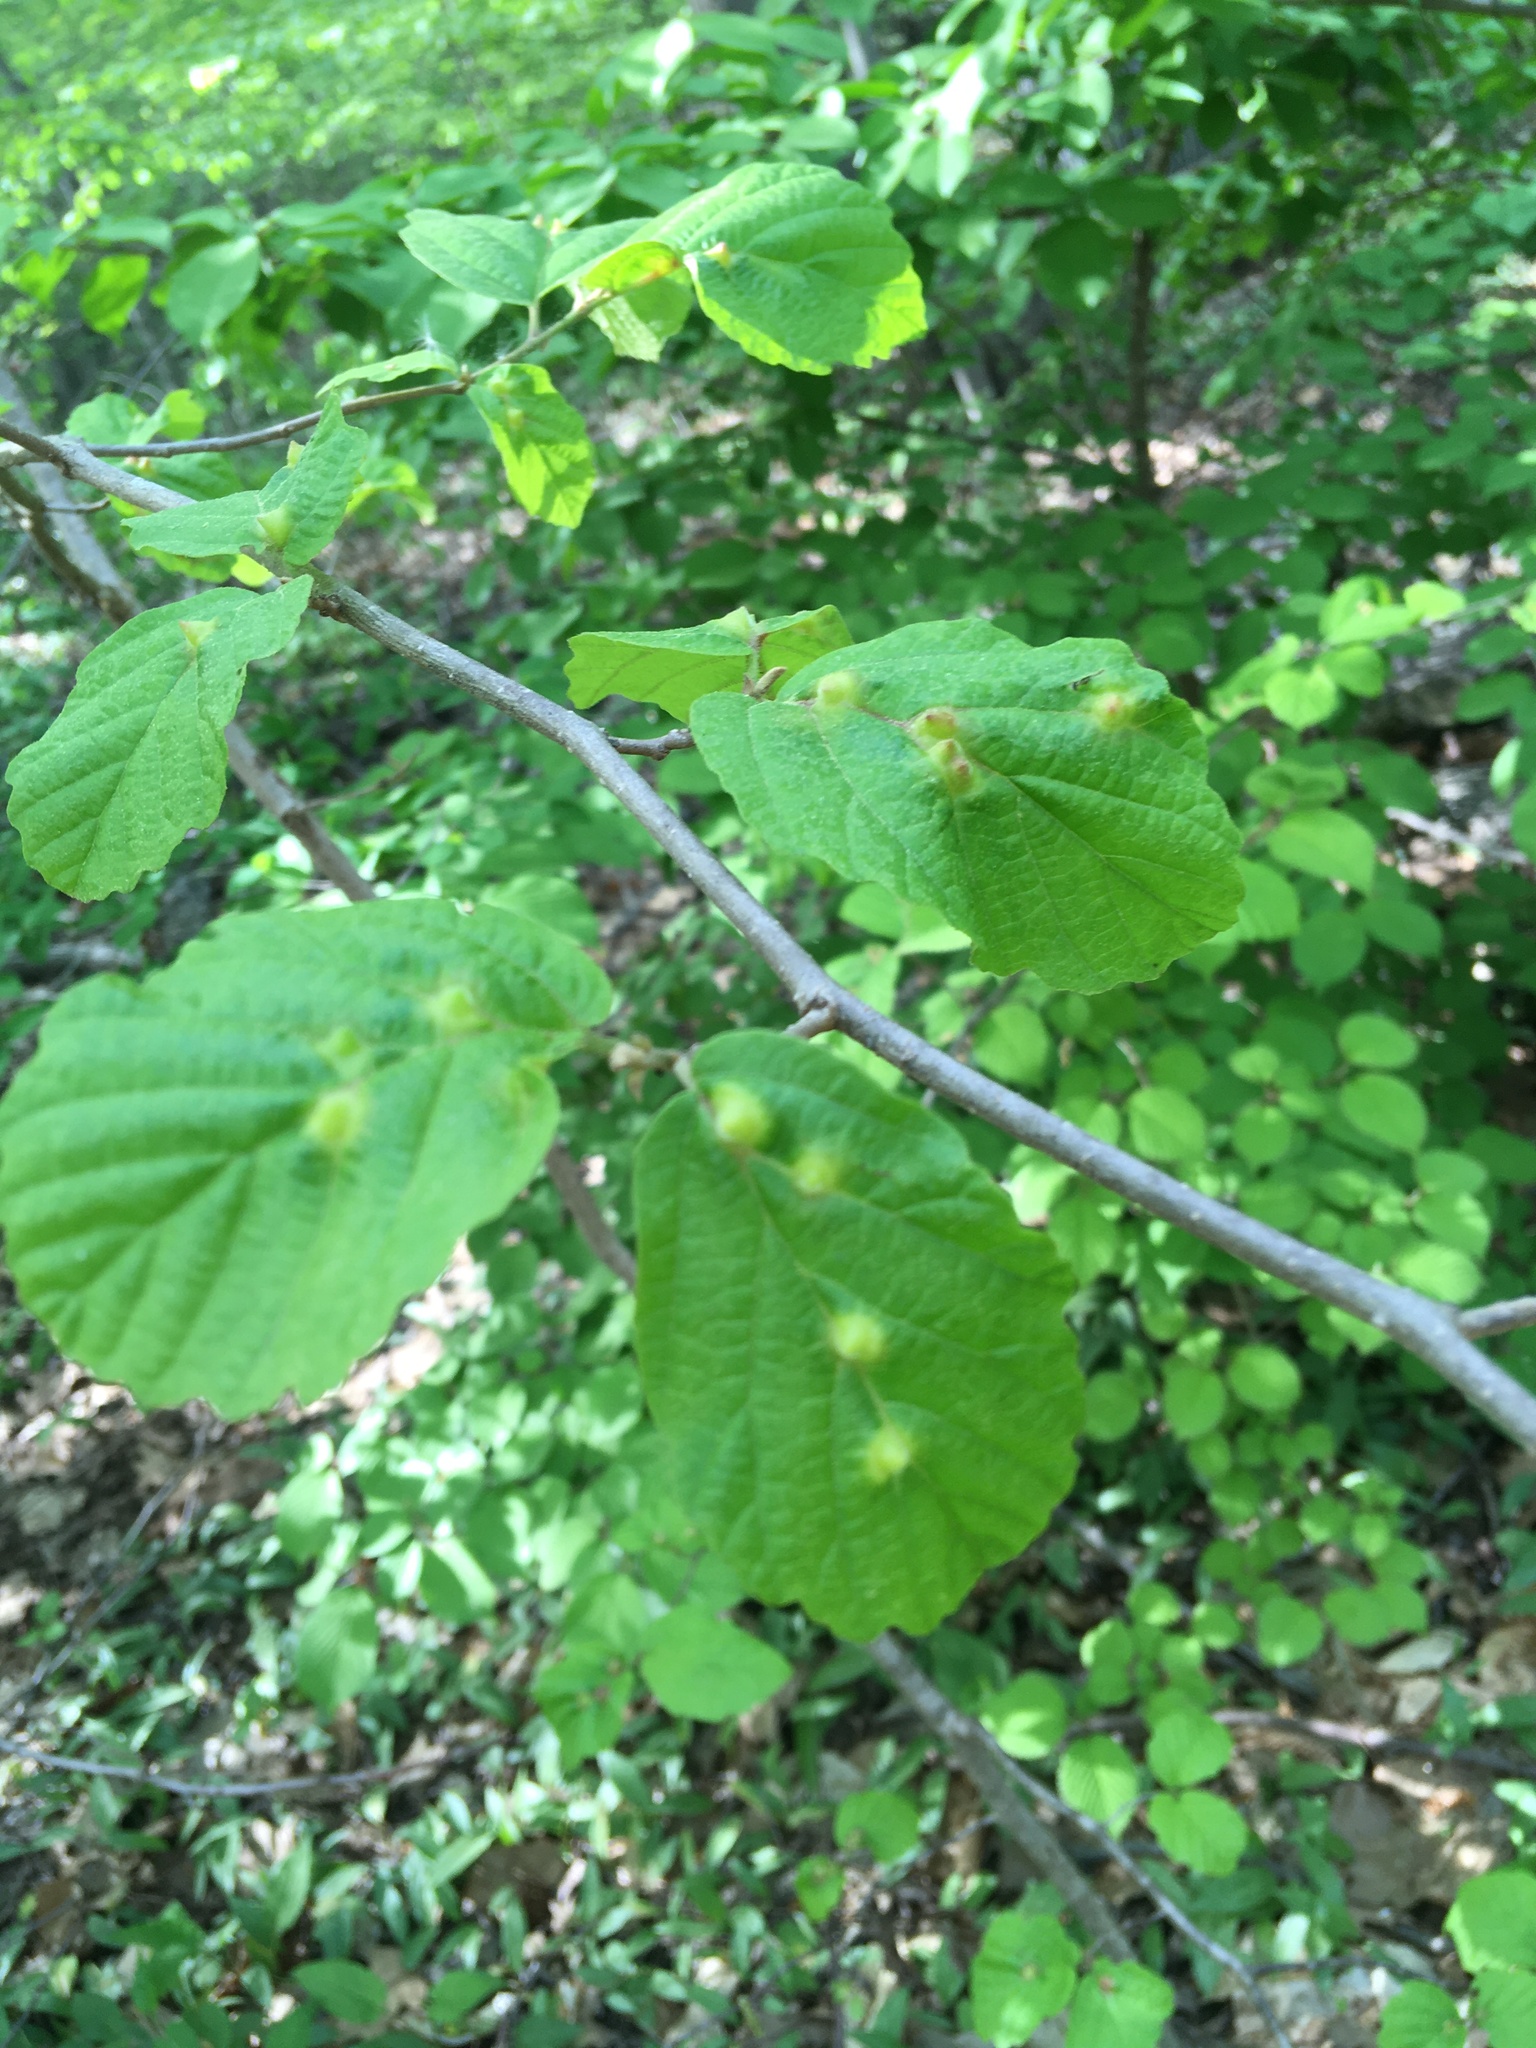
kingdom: Animalia
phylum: Arthropoda
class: Insecta
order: Hemiptera
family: Aphididae
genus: Hormaphis
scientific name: Hormaphis hamamelidis
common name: Witch-hazel cone gall aphid
